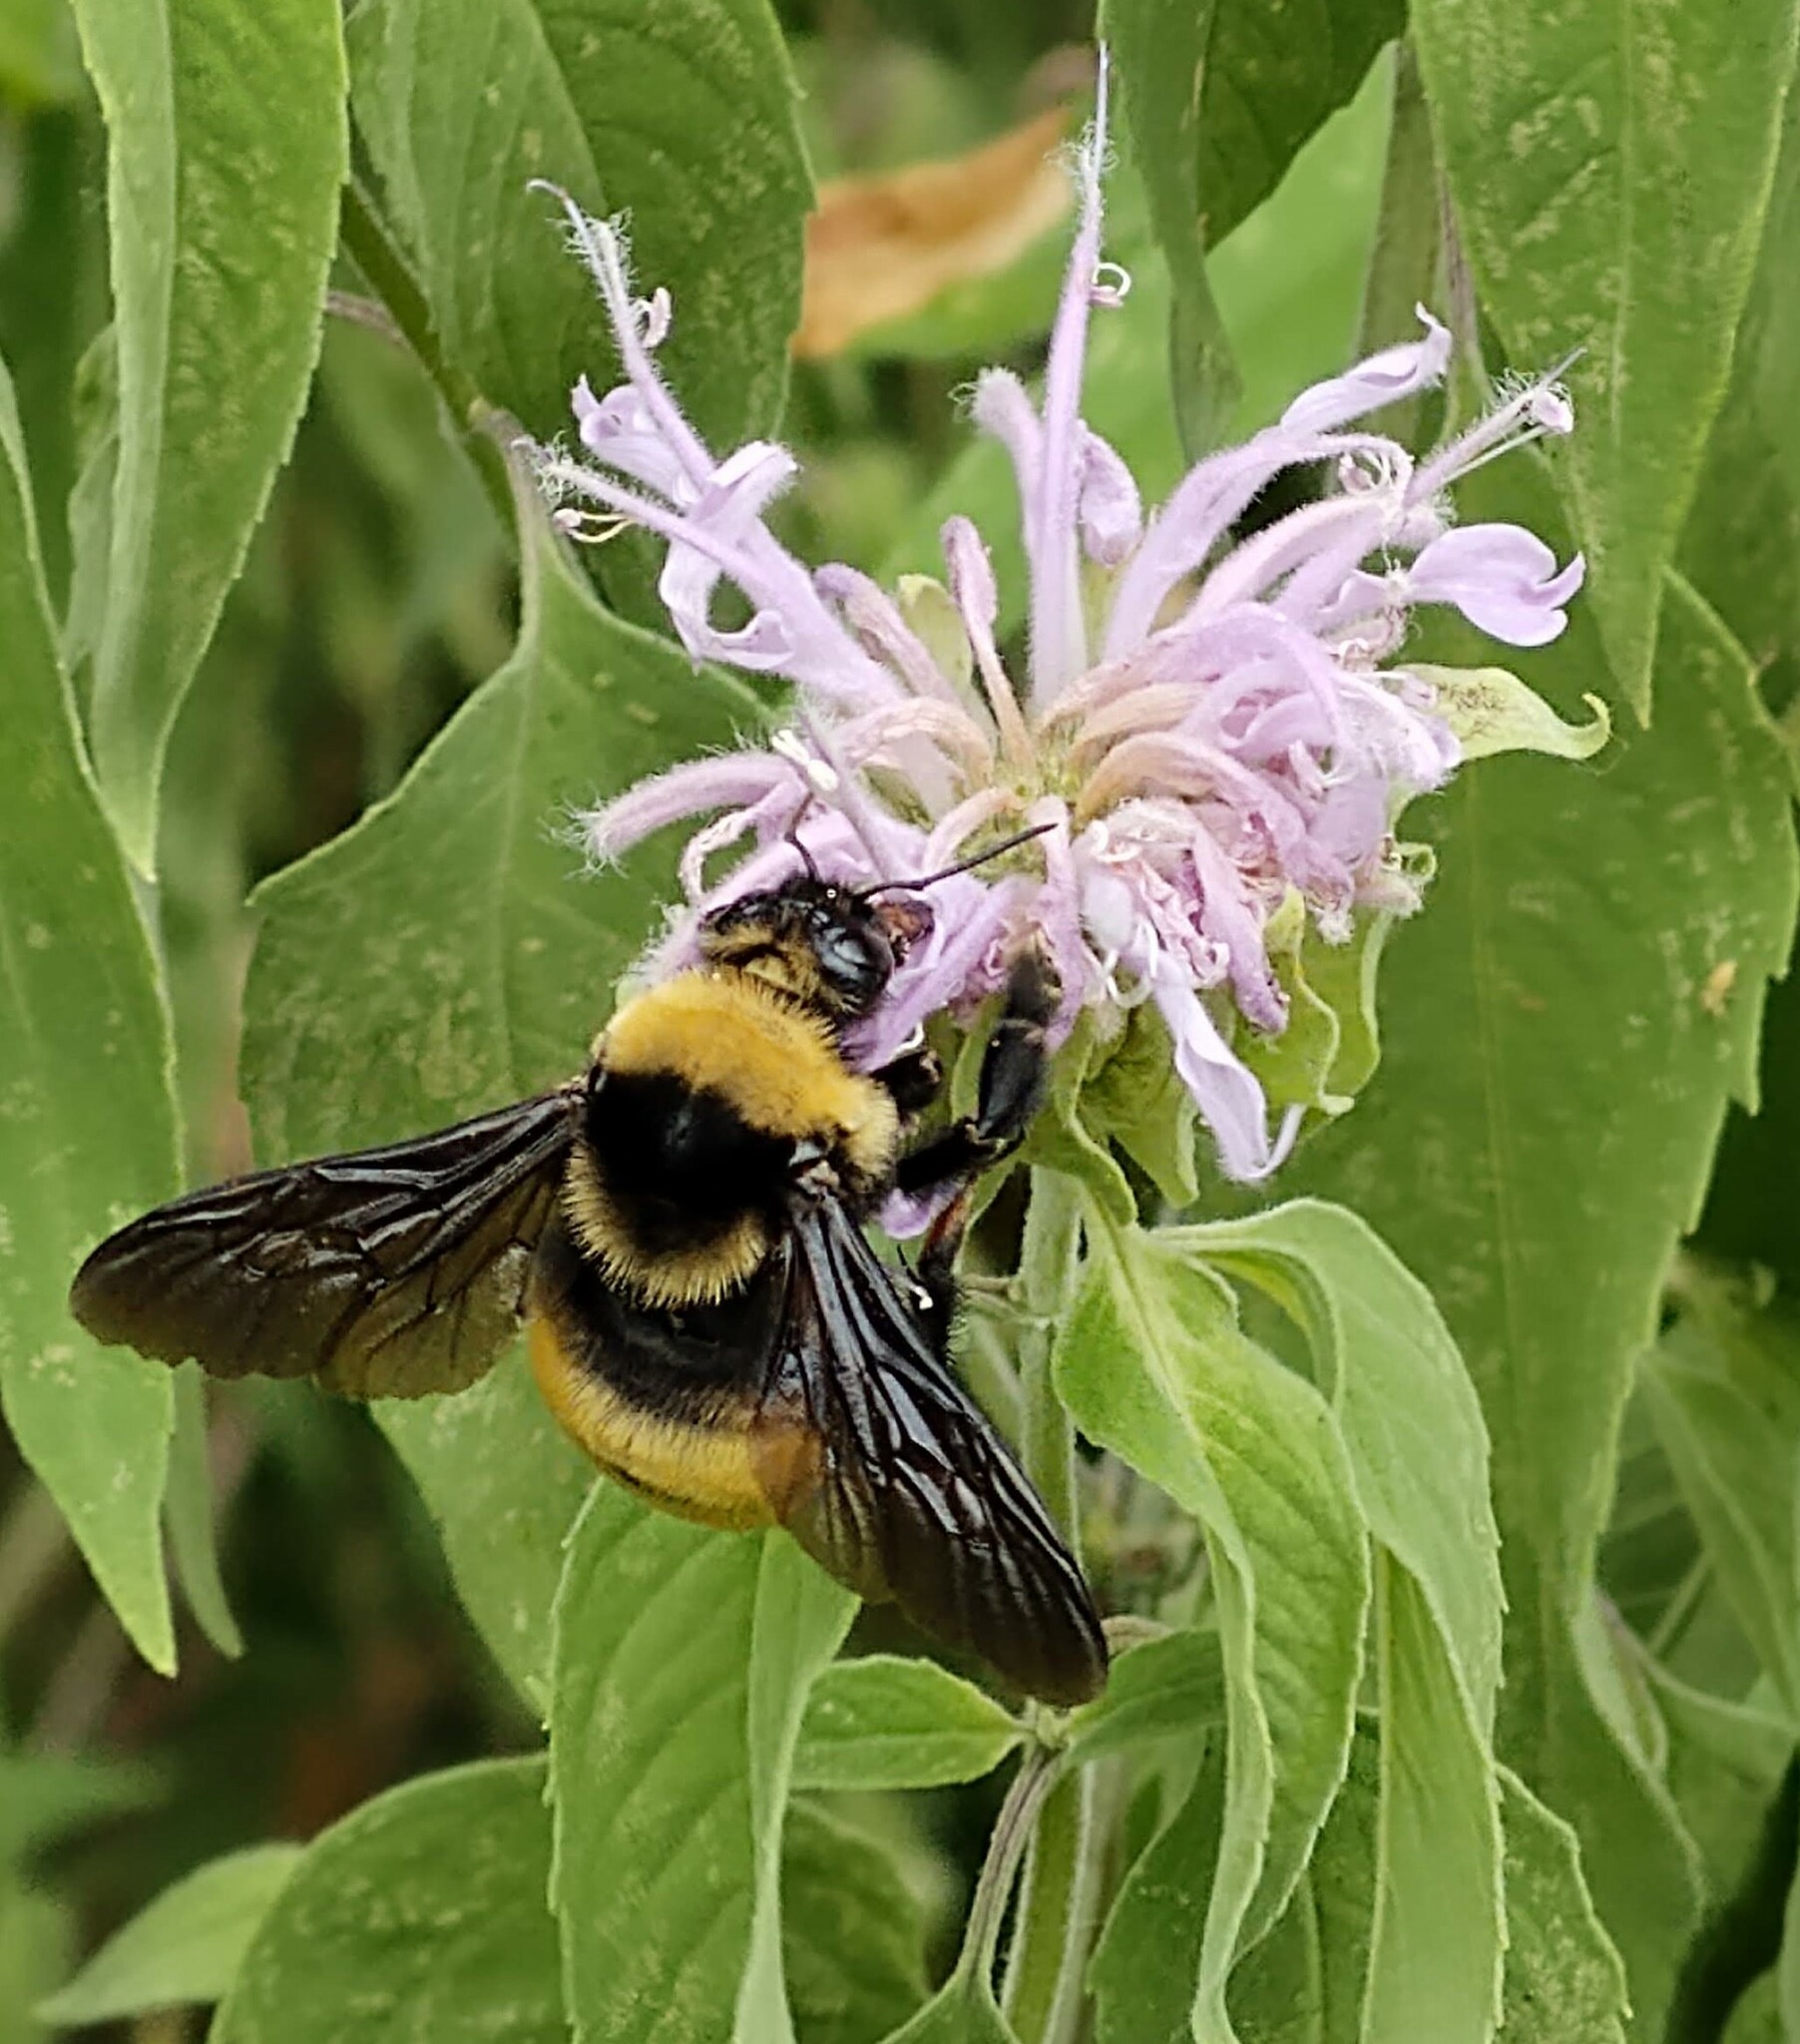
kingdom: Animalia
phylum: Arthropoda
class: Insecta
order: Hymenoptera
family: Apidae
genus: Bombus
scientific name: Bombus auricomus
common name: Black and gold bumble bee
